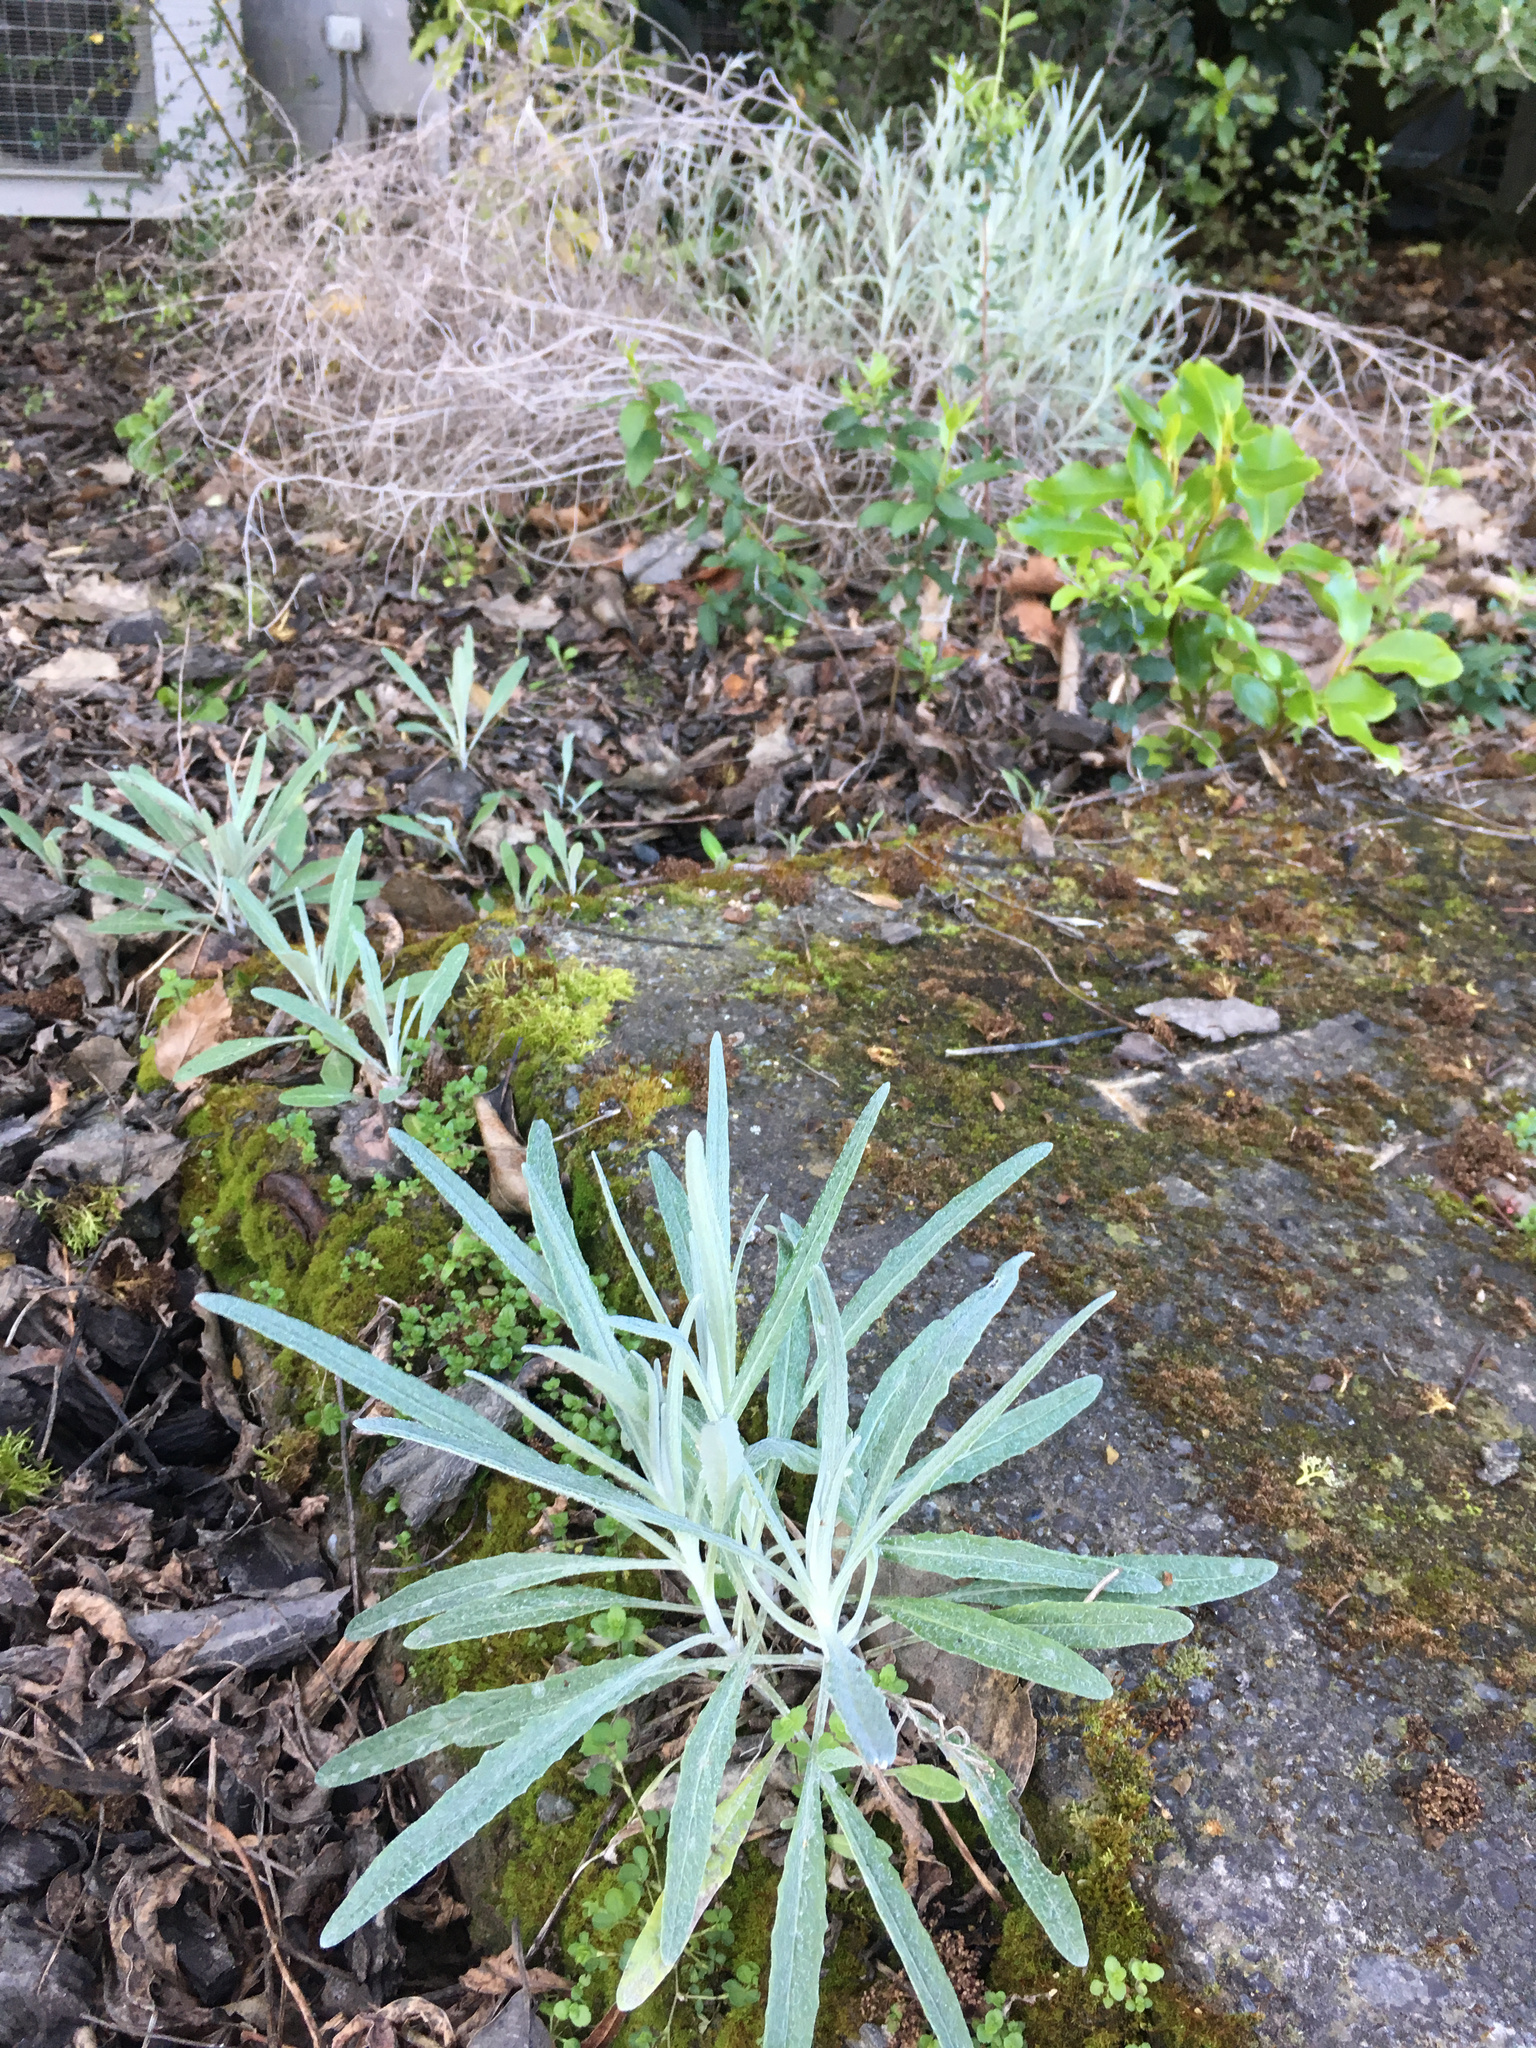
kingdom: Plantae
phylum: Tracheophyta
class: Magnoliopsida
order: Asterales
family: Asteraceae
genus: Senecio
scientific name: Senecio quadridentatus
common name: Cotton fireweed
